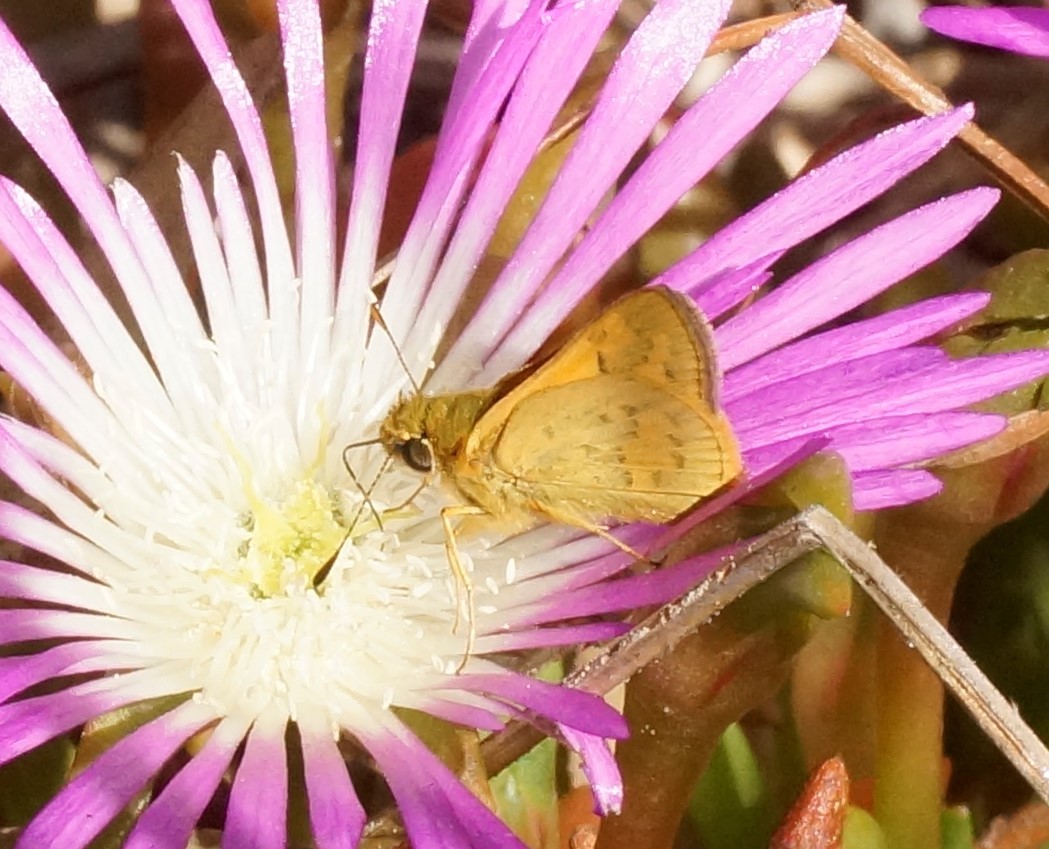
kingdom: Animalia
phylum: Arthropoda
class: Insecta
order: Lepidoptera
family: Hesperiidae
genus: Ocybadistes
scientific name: Ocybadistes walkeri
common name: Yellow-banded dart
